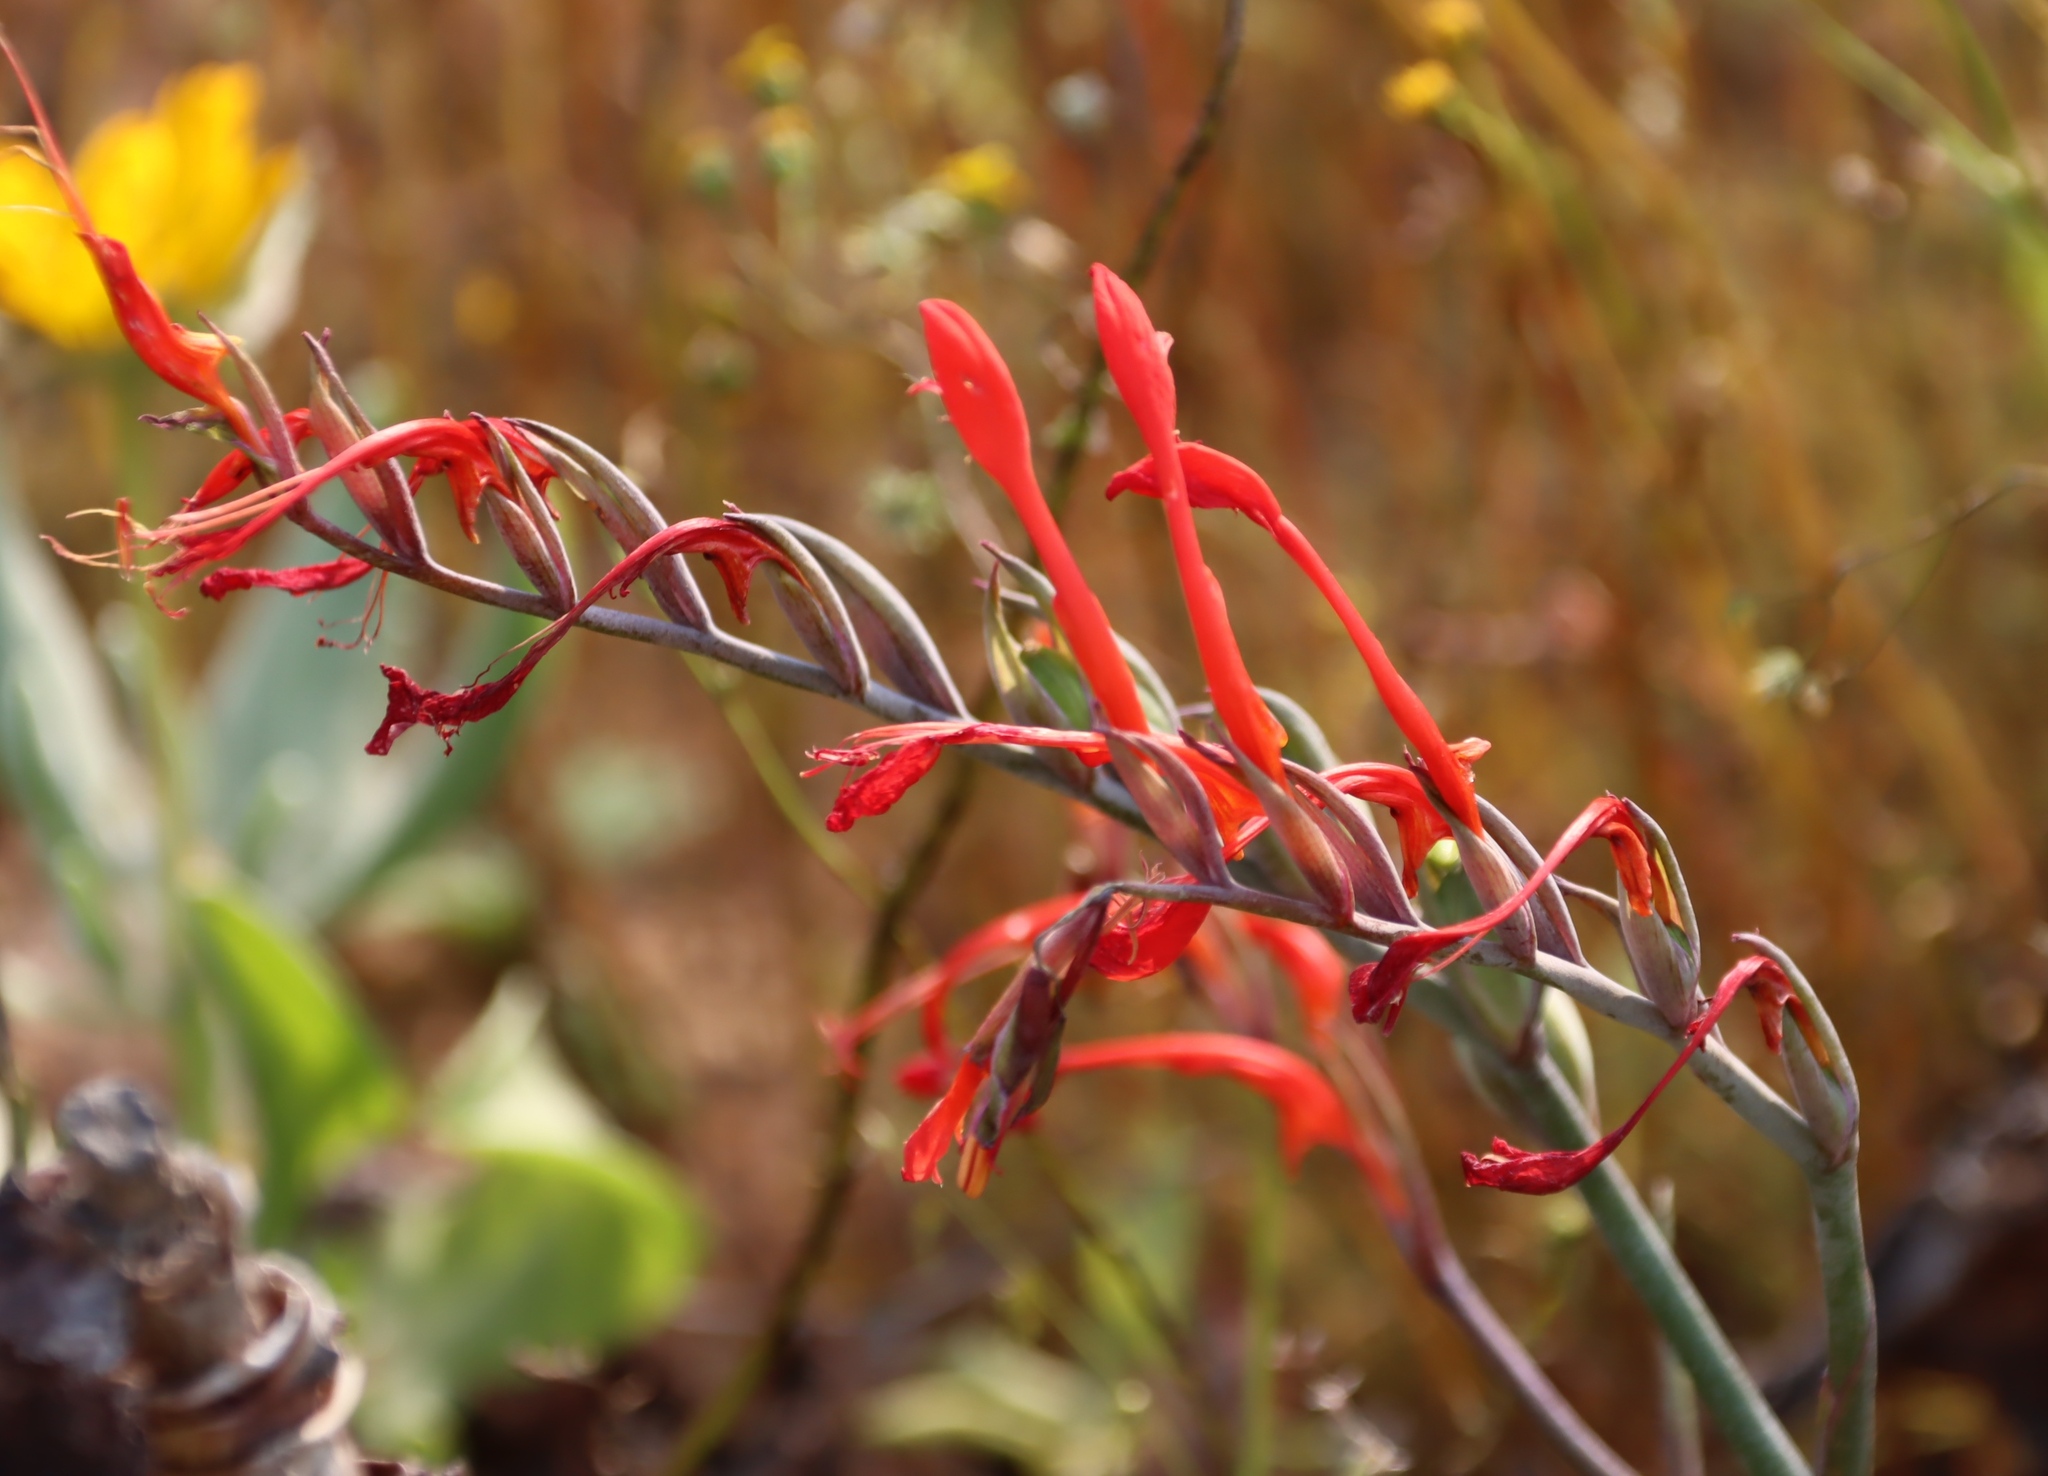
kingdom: Plantae
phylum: Tracheophyta
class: Liliopsida
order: Asparagales
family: Iridaceae
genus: Gladiolus
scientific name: Gladiolus saccatus
